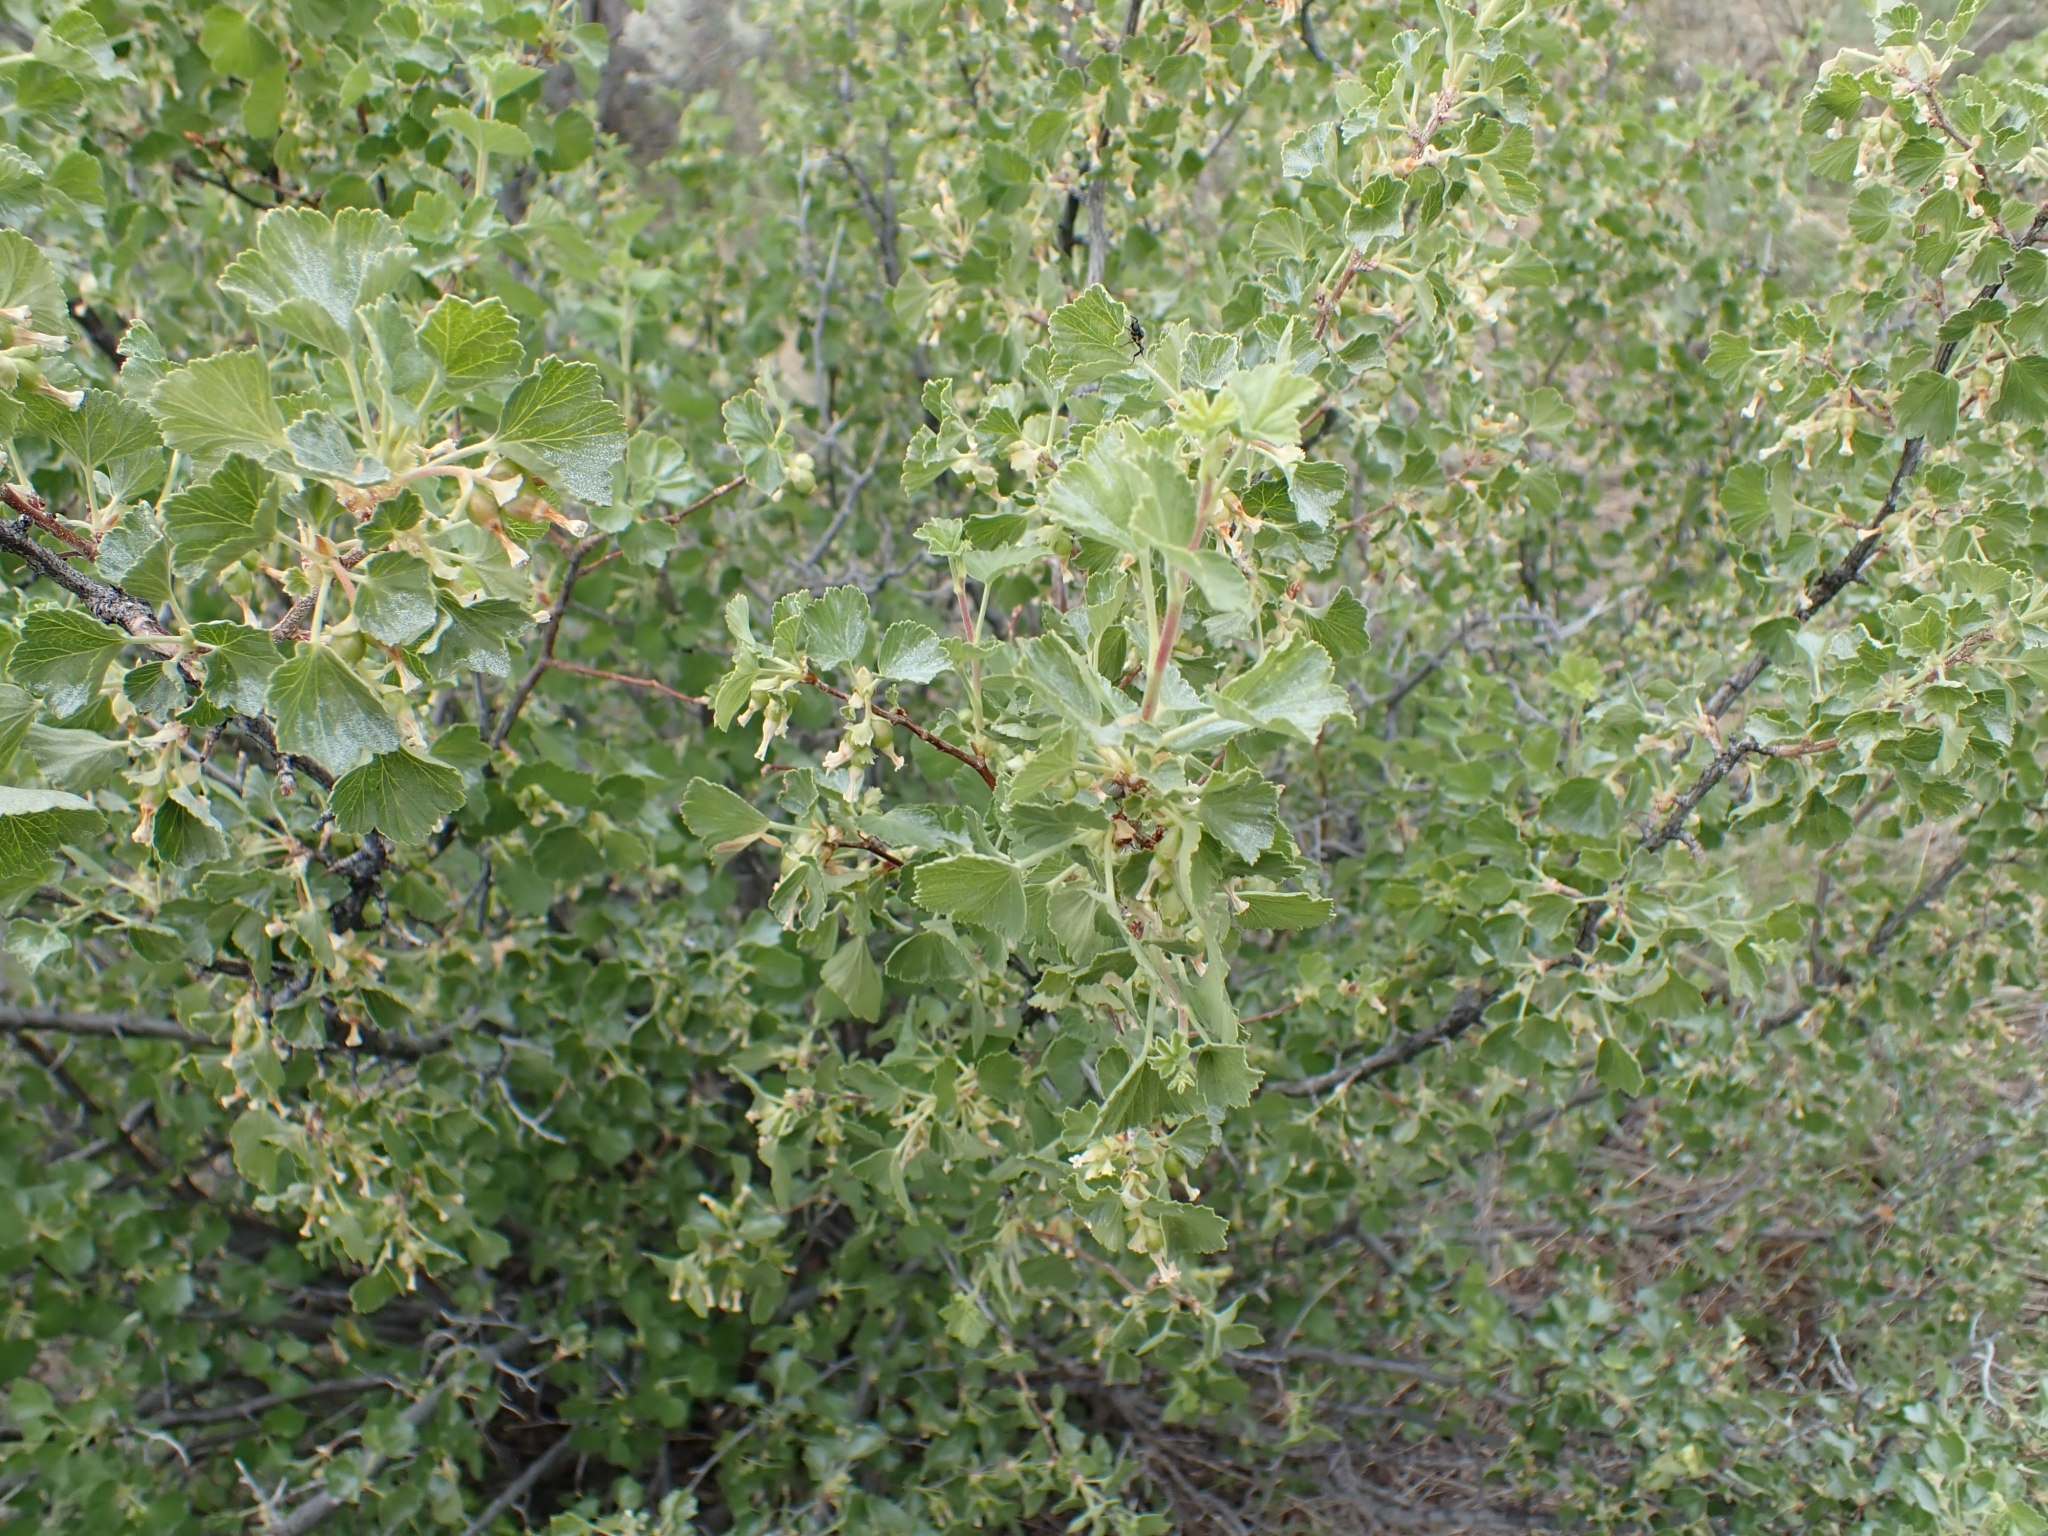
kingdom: Plantae
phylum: Tracheophyta
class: Magnoliopsida
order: Saxifragales
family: Grossulariaceae
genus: Ribes
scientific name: Ribes cereum
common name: Wax currant
